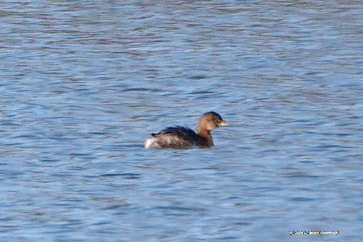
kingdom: Animalia
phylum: Chordata
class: Aves
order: Podicipediformes
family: Podicipedidae
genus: Podilymbus
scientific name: Podilymbus podiceps
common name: Pied-billed grebe
